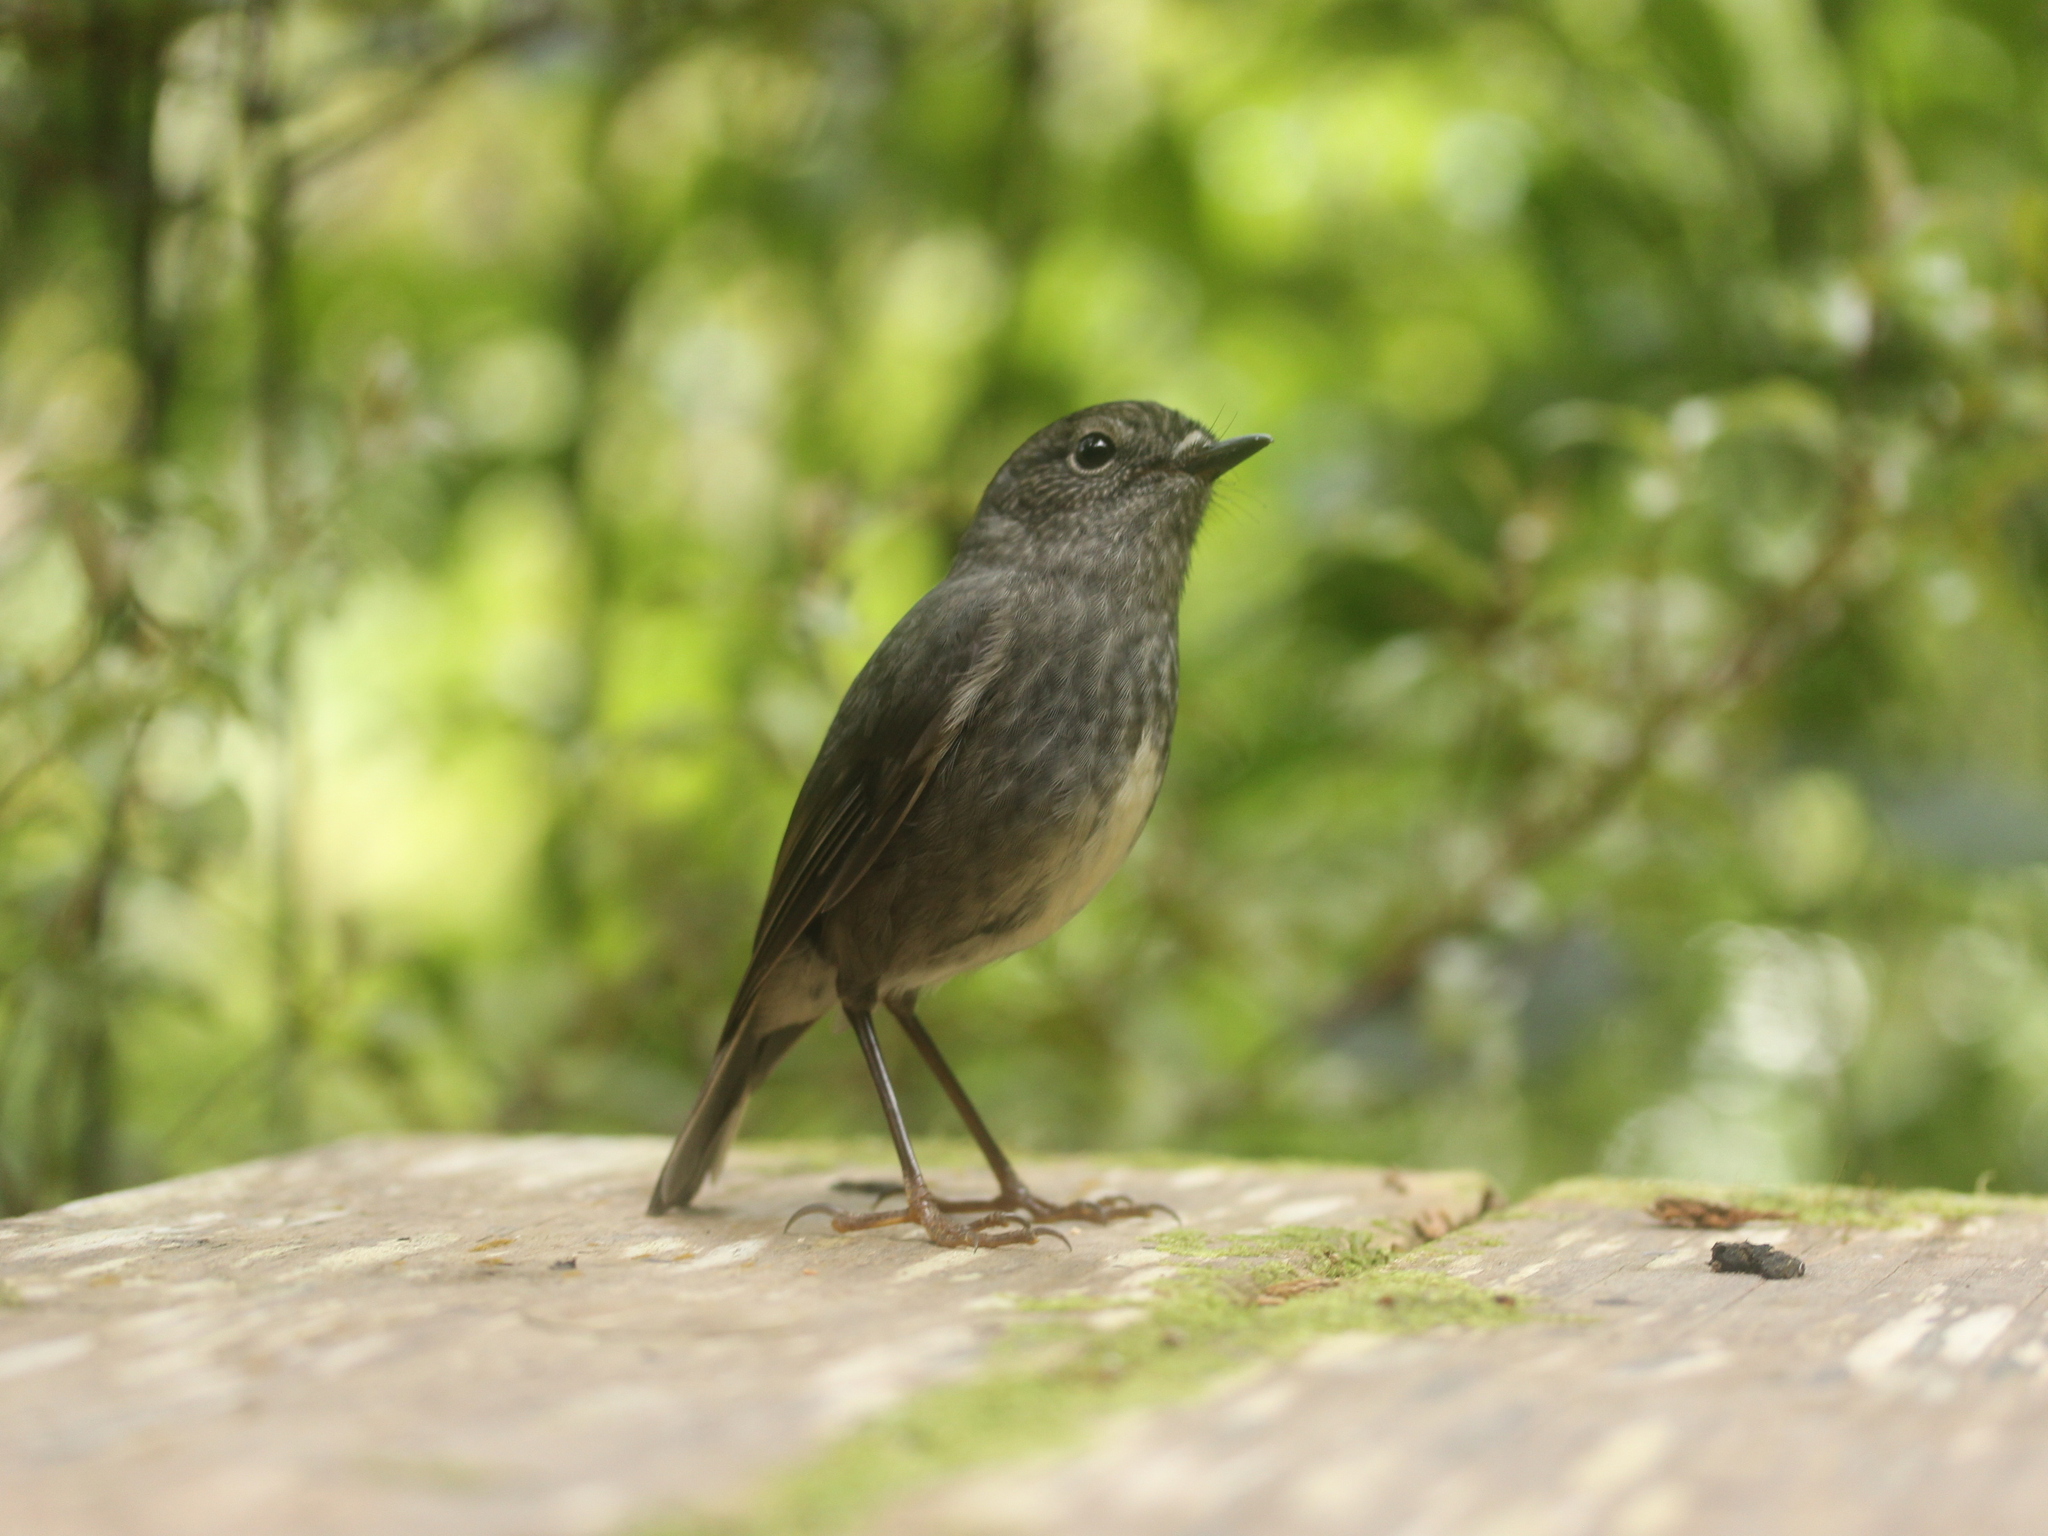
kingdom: Animalia
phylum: Chordata
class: Aves
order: Passeriformes
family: Petroicidae
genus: Petroica
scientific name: Petroica australis
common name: New zealand robin
